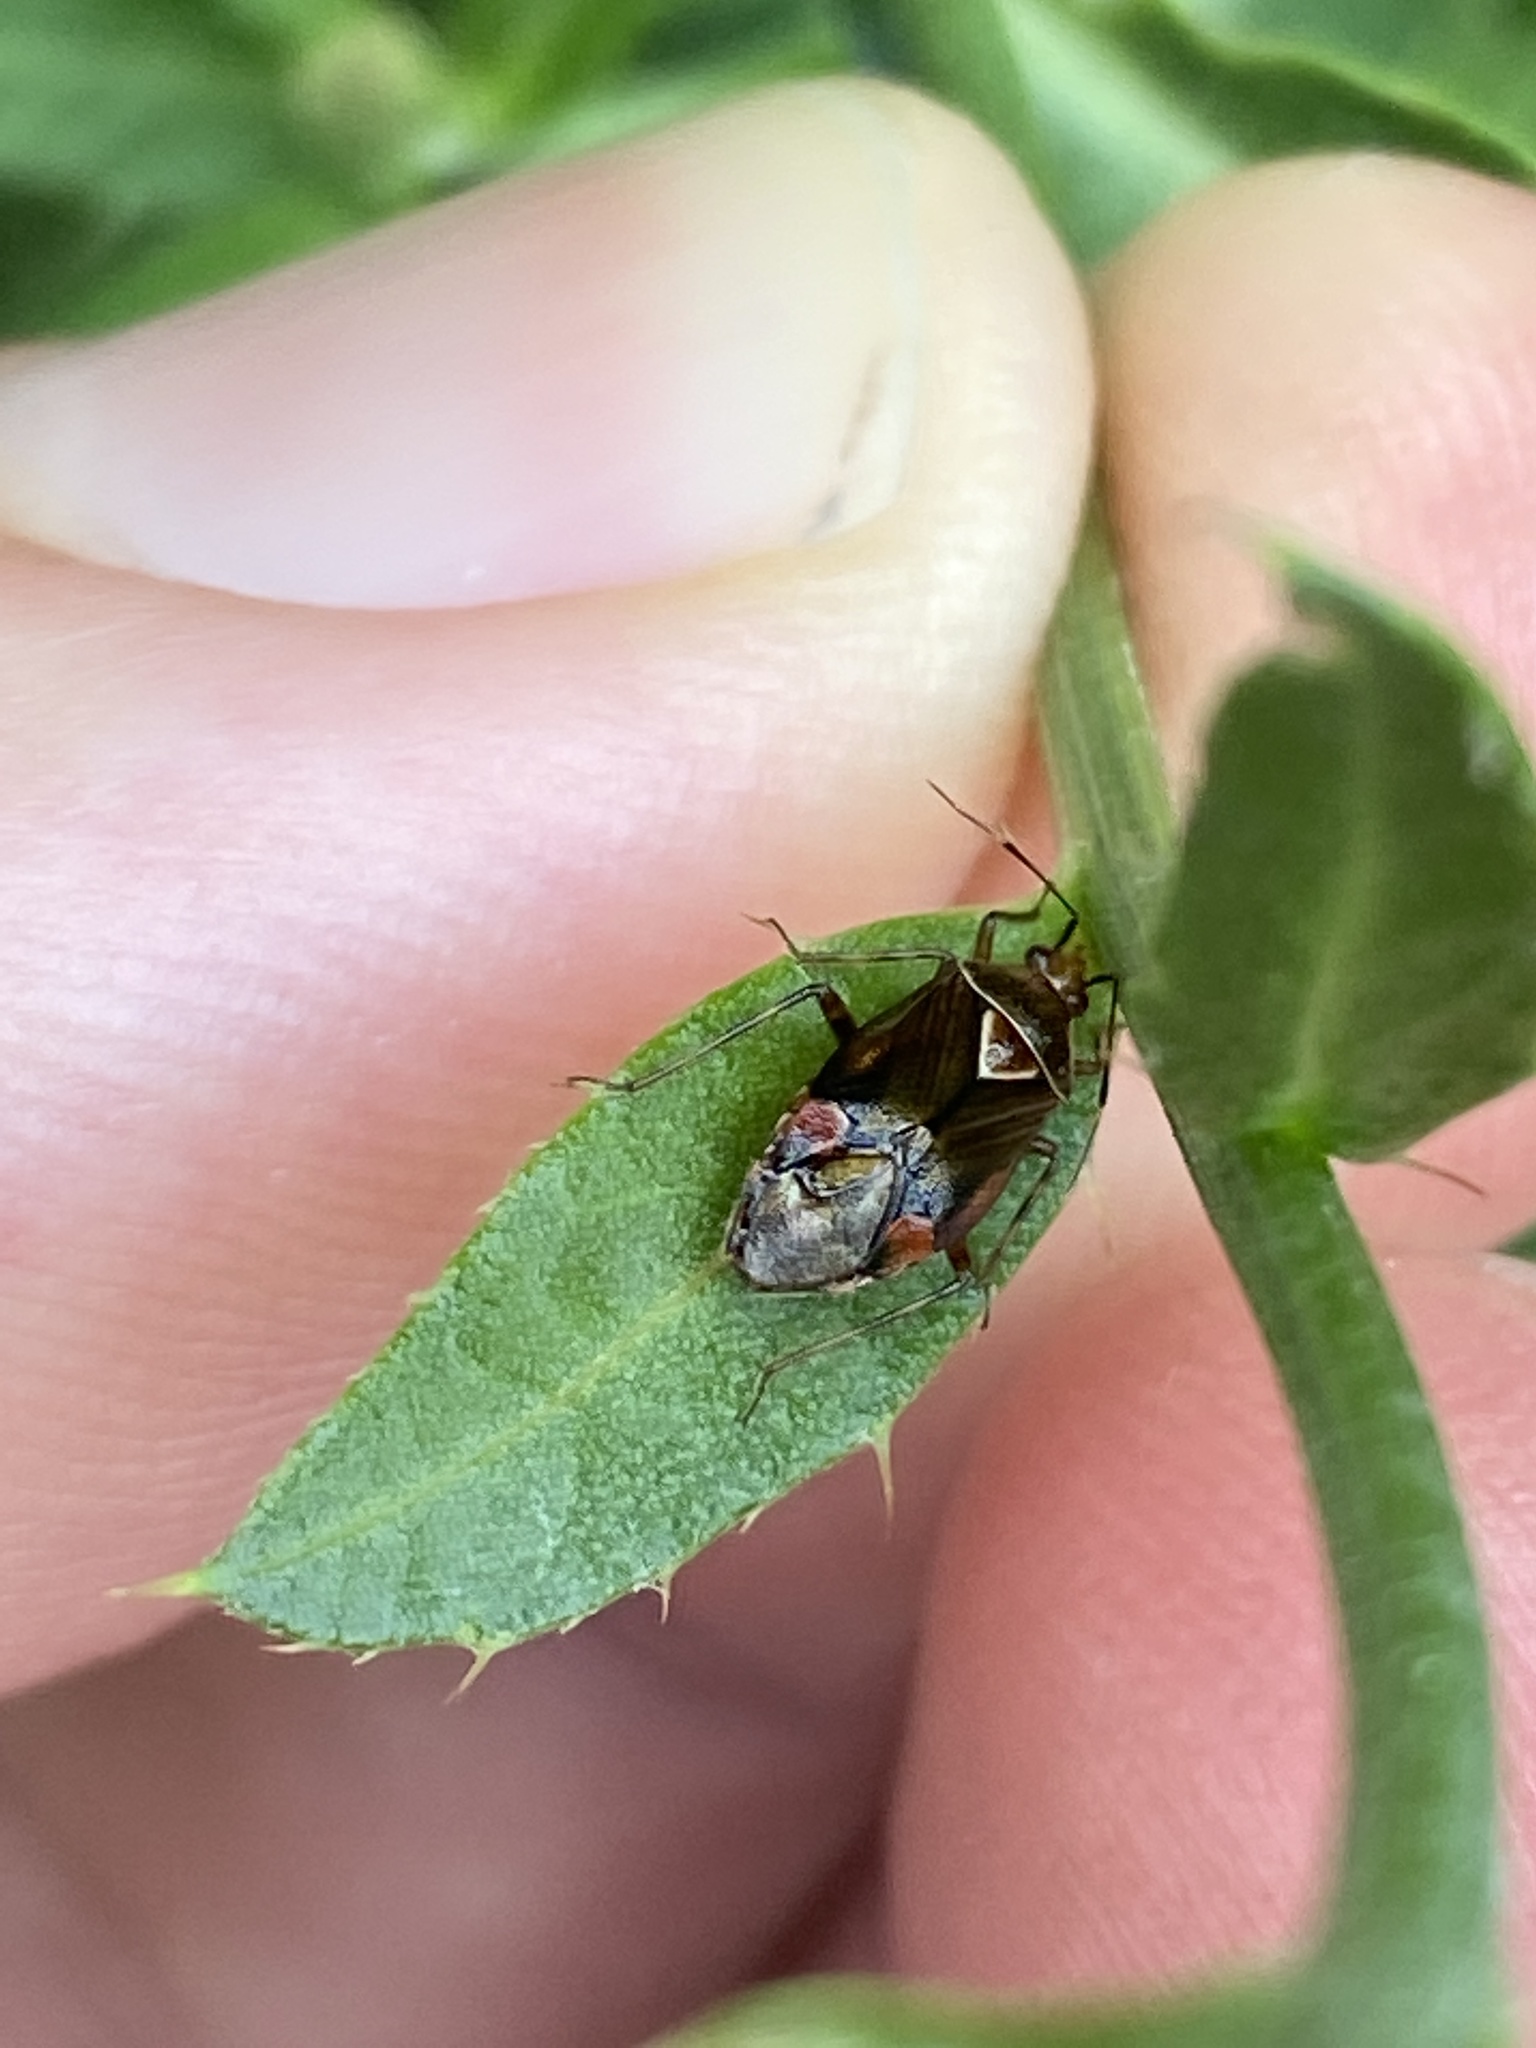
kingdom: Animalia
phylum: Arthropoda
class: Insecta
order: Hemiptera
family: Miridae
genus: Deraeocoris
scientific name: Deraeocoris flavilinea
